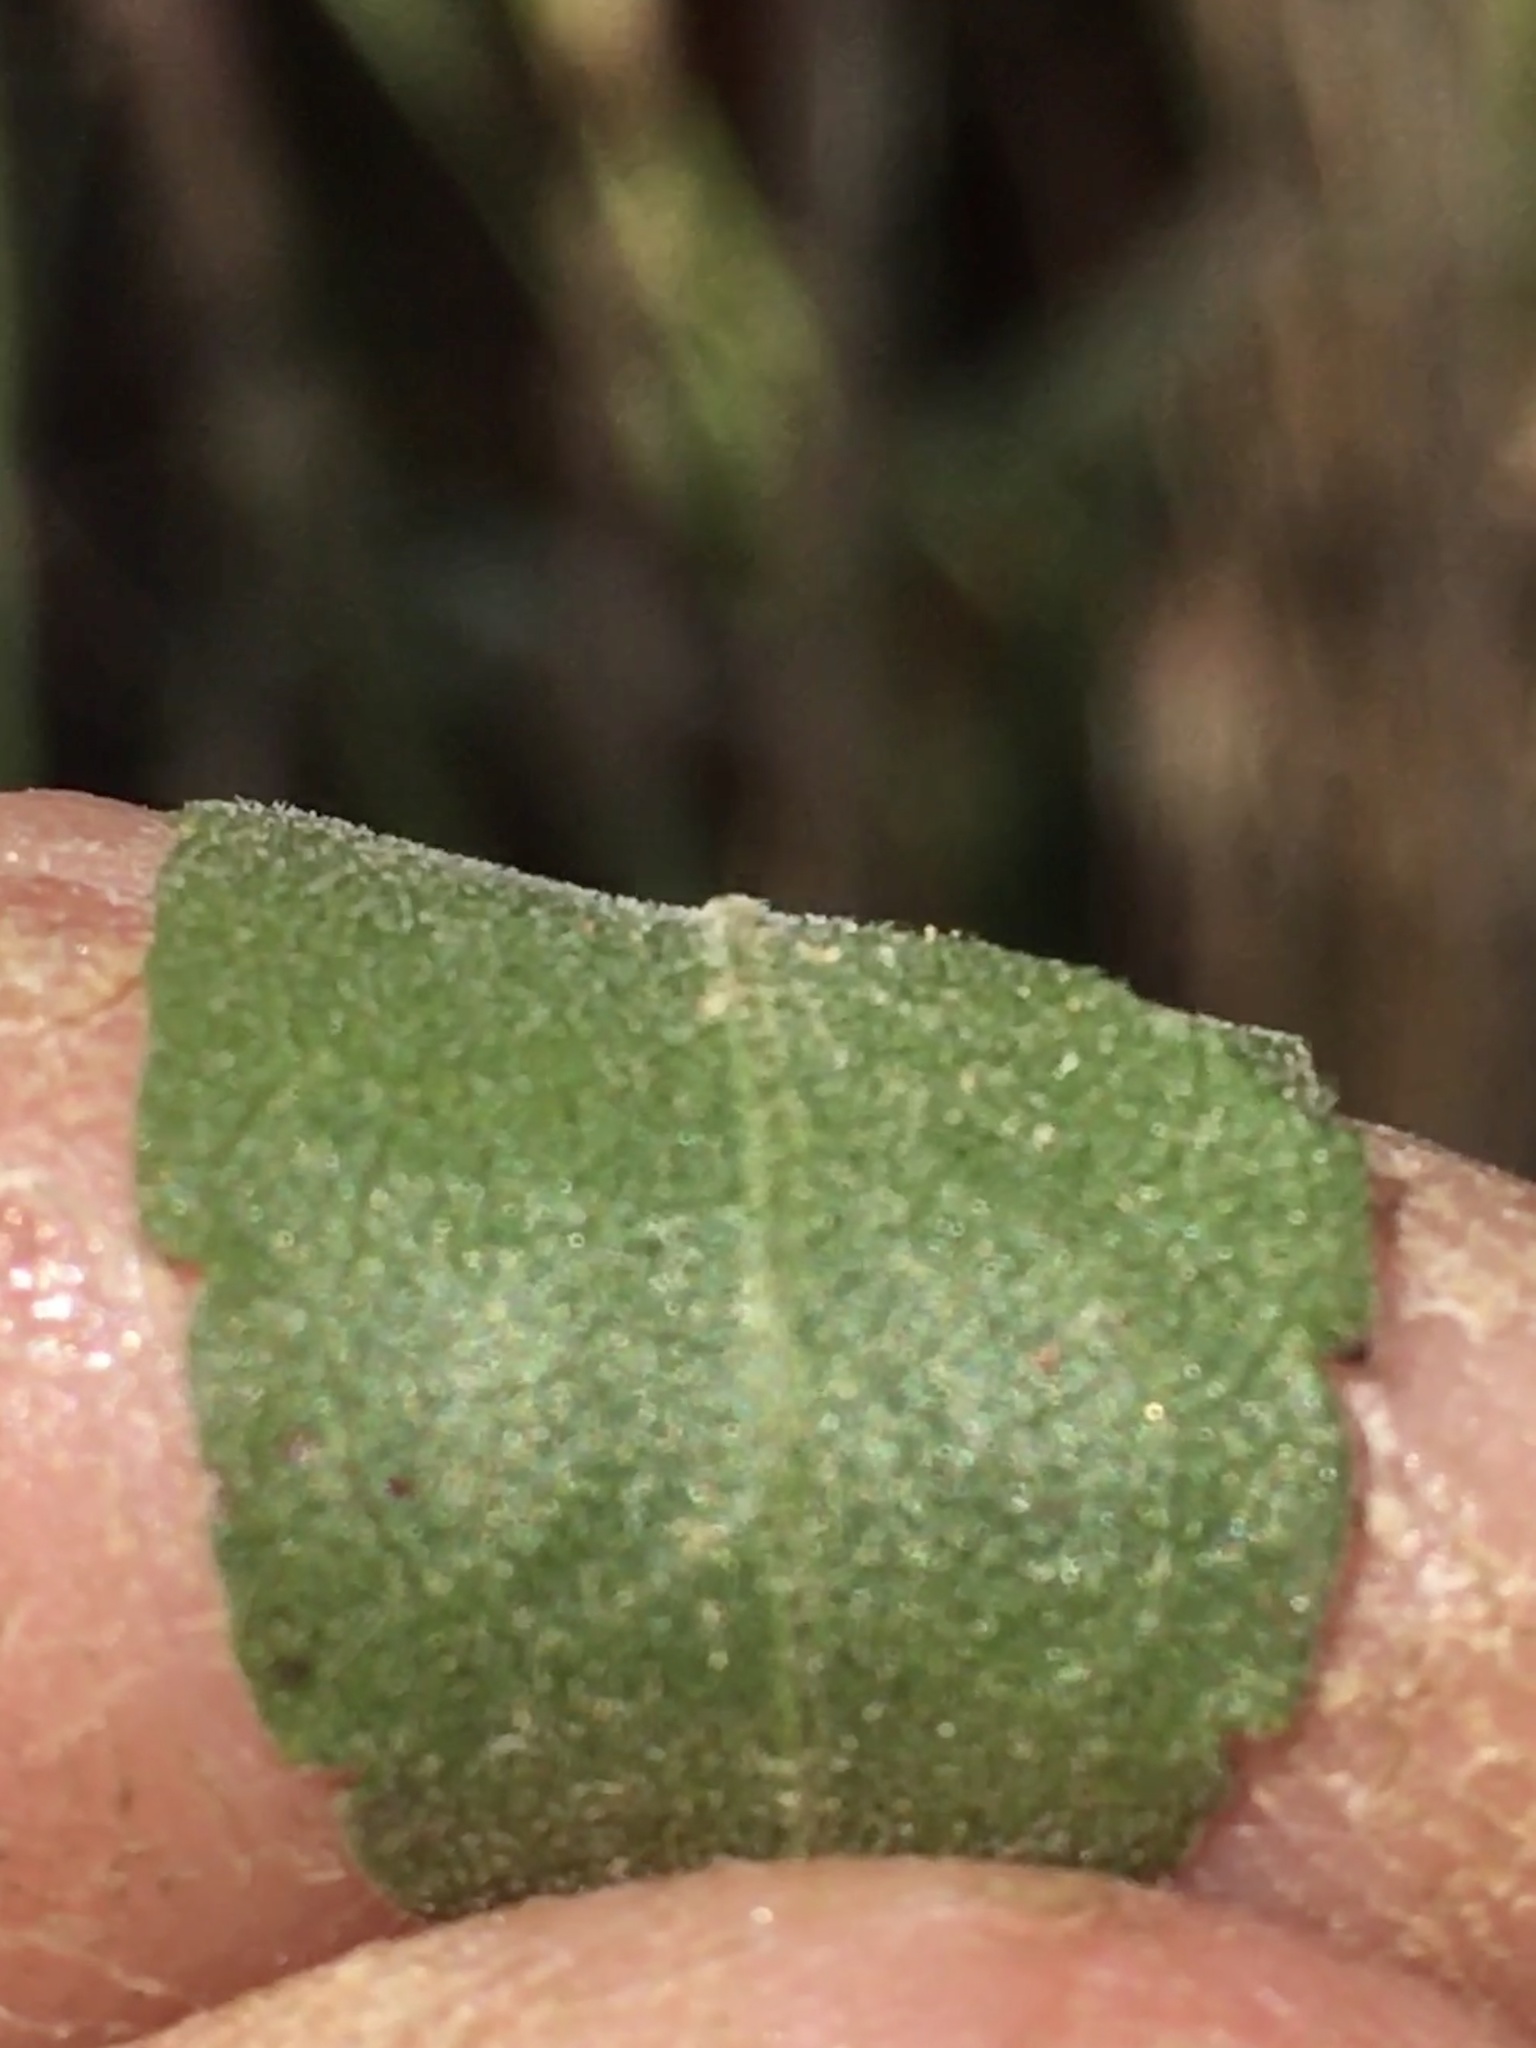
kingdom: Plantae
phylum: Tracheophyta
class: Magnoliopsida
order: Asterales
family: Asteraceae
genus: Solidago
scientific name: Solidago nemoralis
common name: Grey goldenrod
